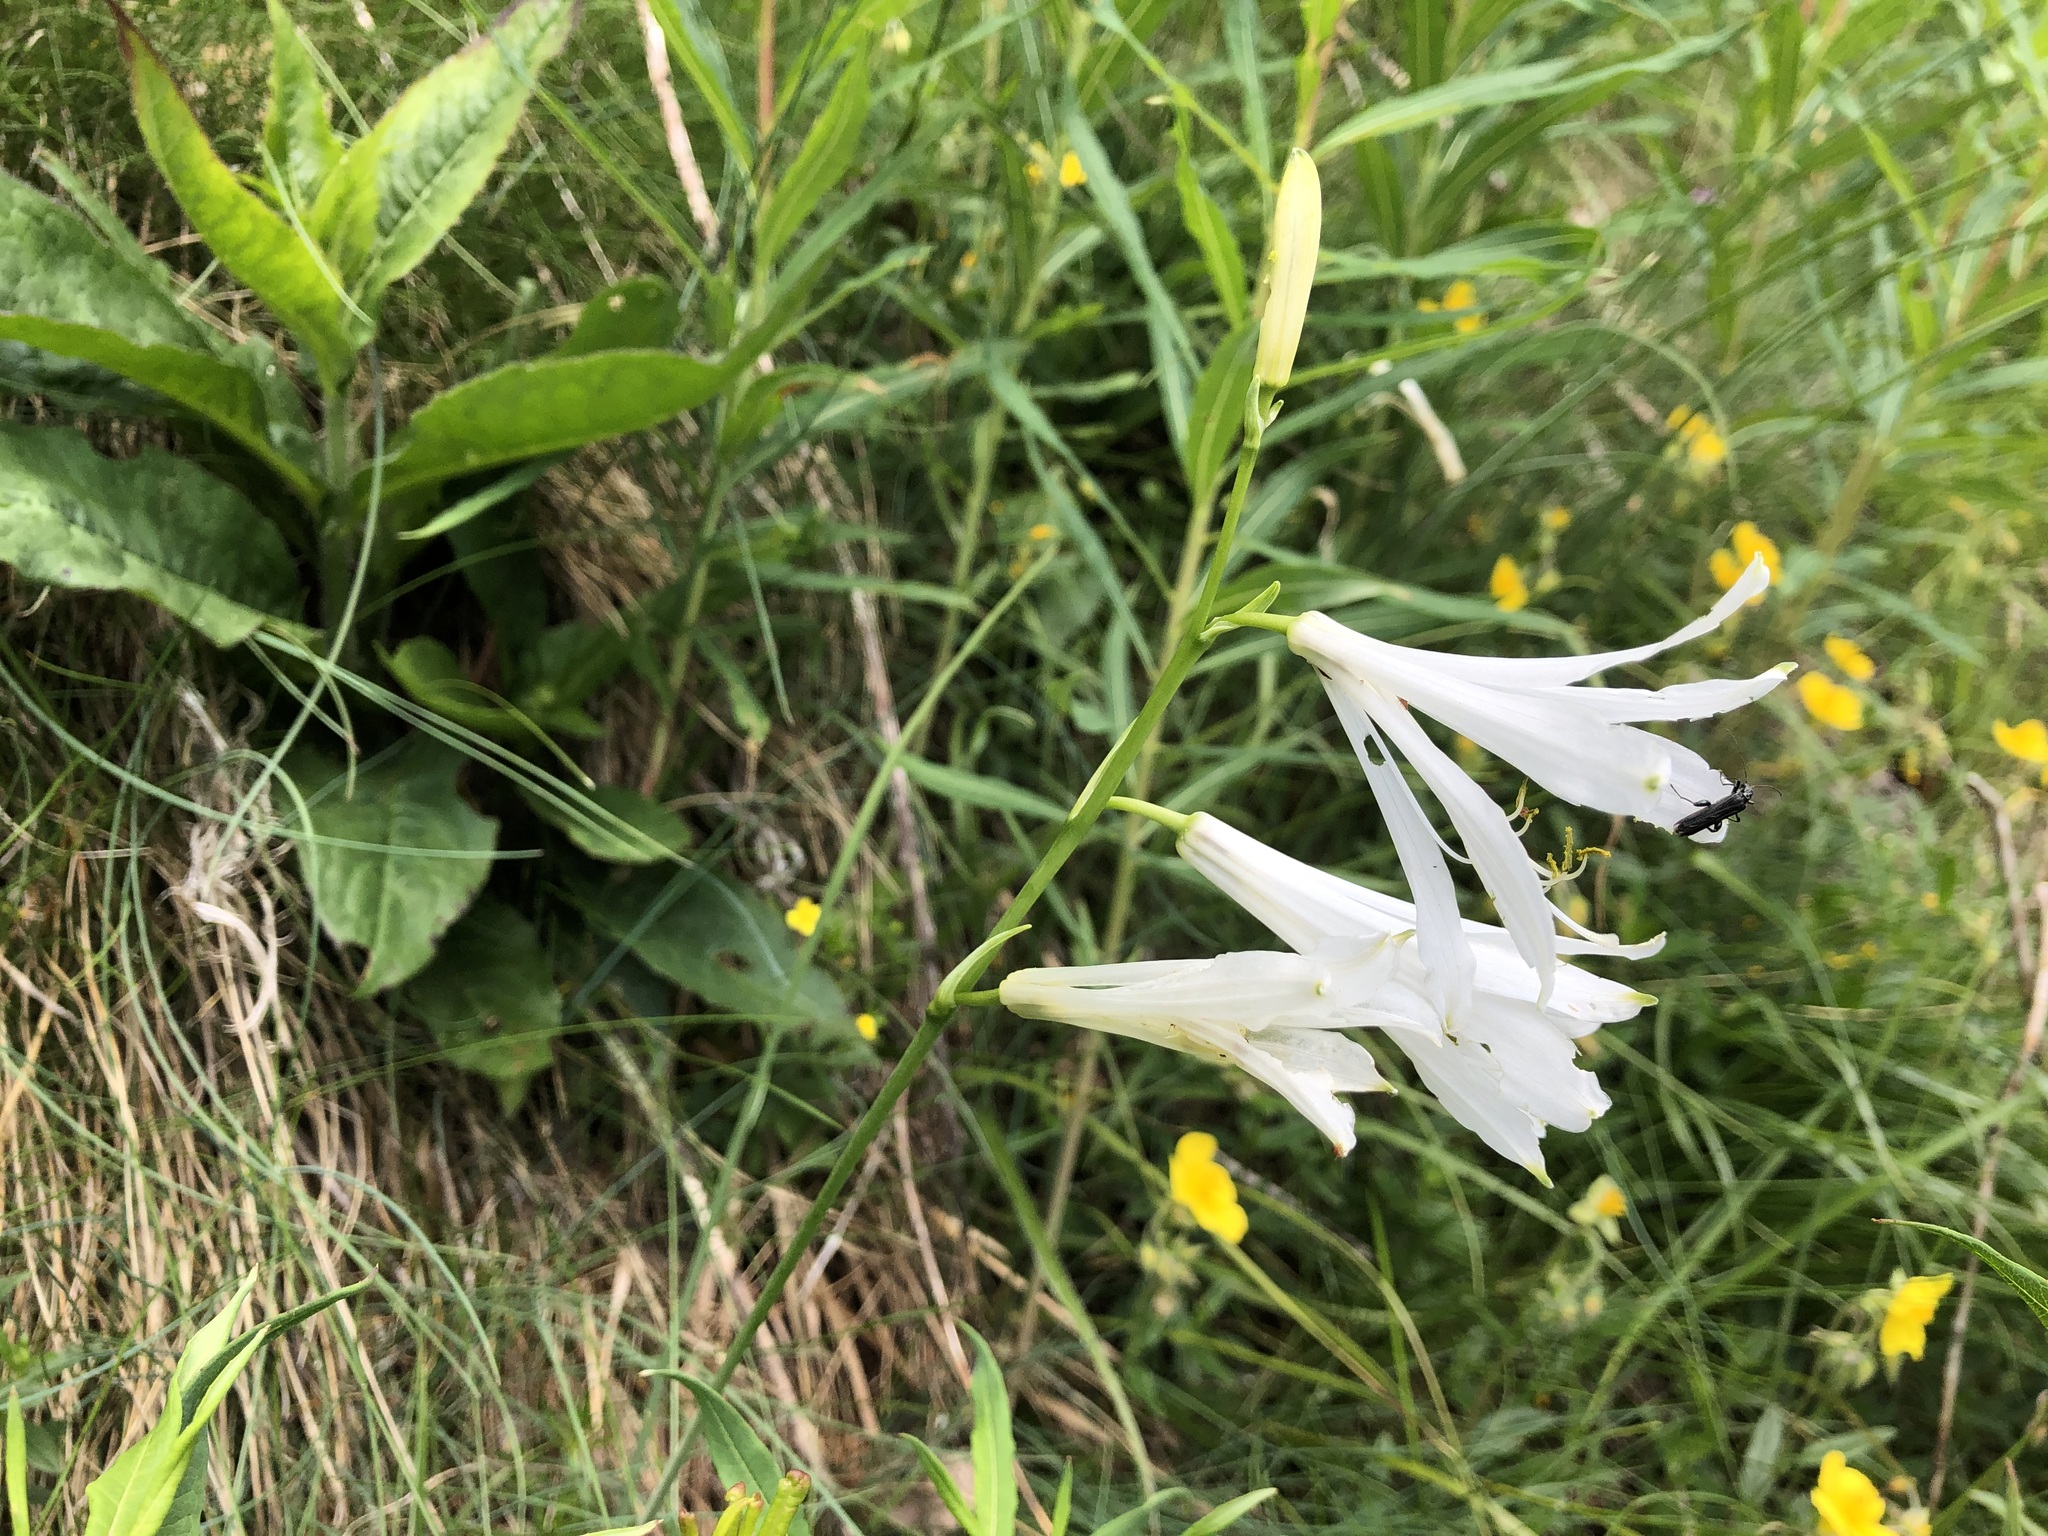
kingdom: Plantae
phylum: Tracheophyta
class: Liliopsida
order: Asparagales
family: Asparagaceae
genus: Paradisea
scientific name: Paradisea liliastrum
